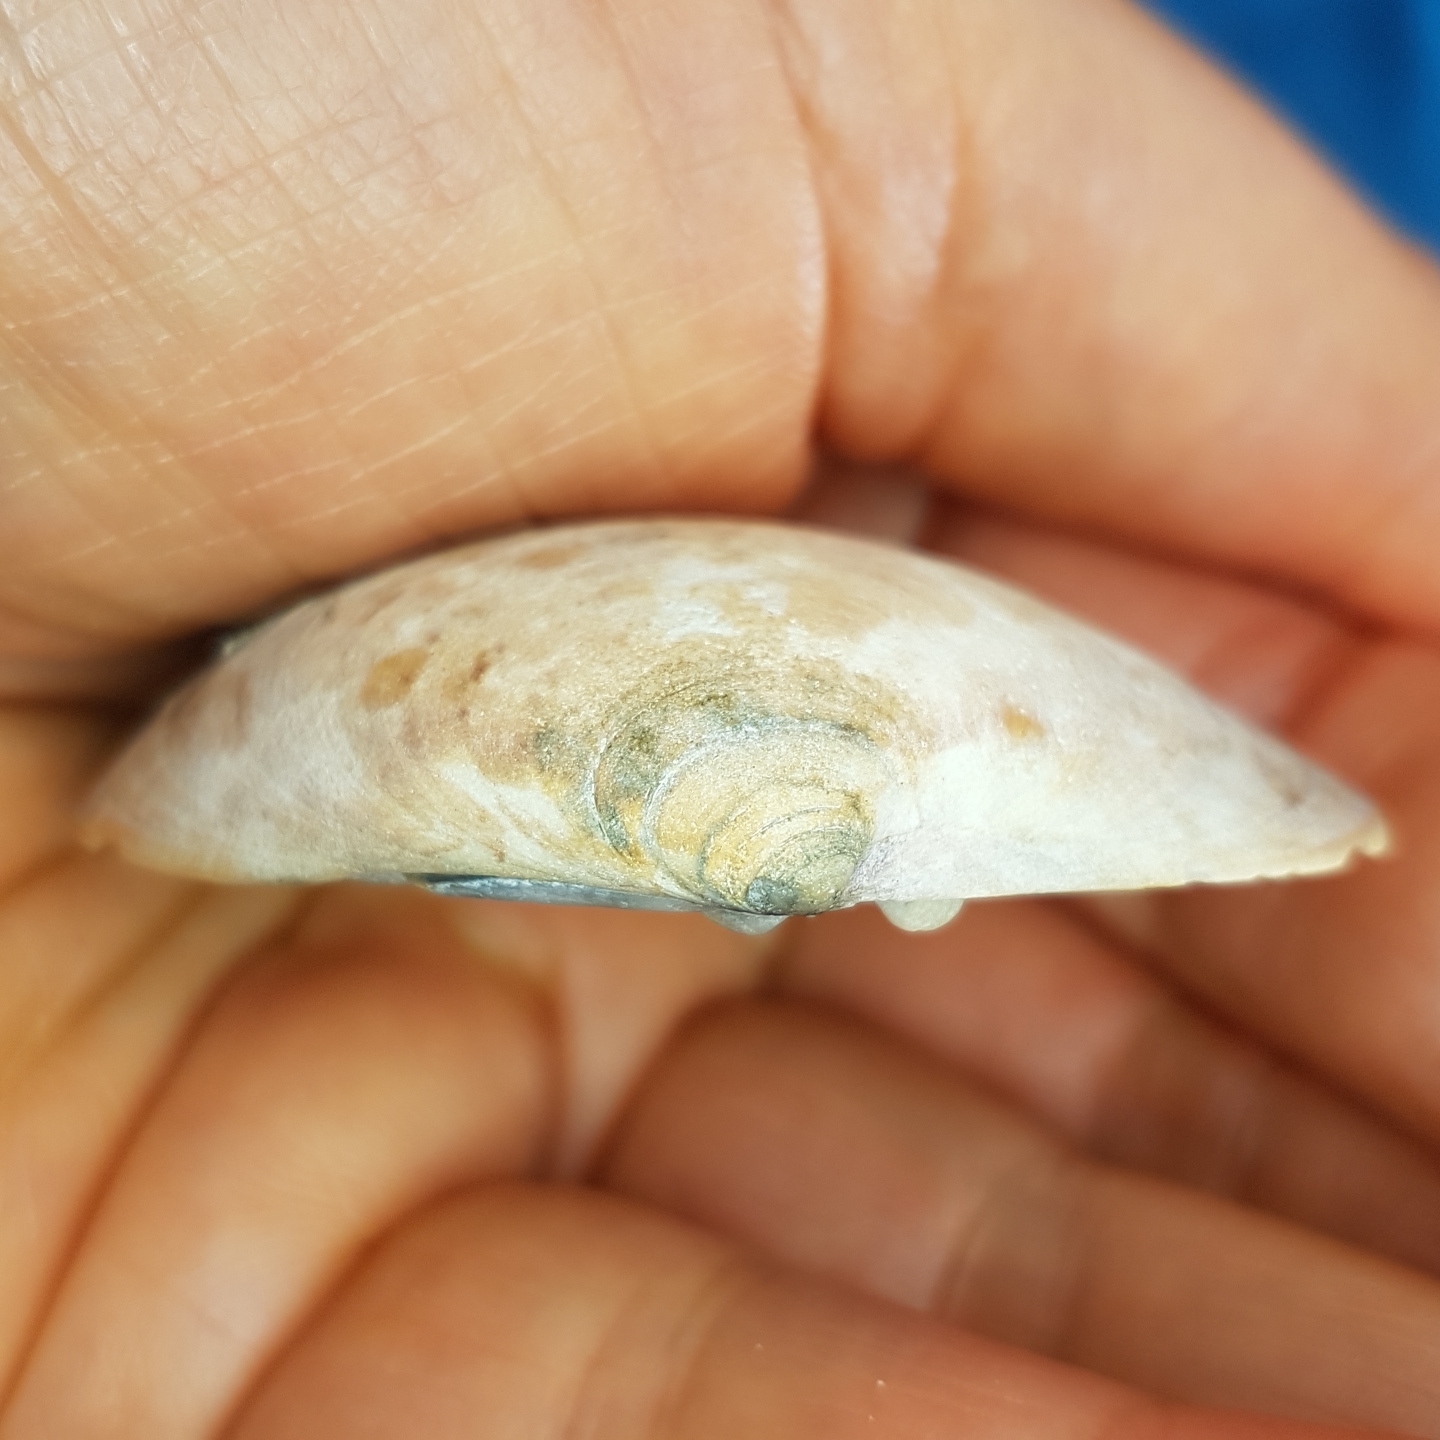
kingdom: Animalia
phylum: Mollusca
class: Bivalvia
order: Venerida
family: Veneridae
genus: Callista
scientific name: Callista chione
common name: Brown venus
